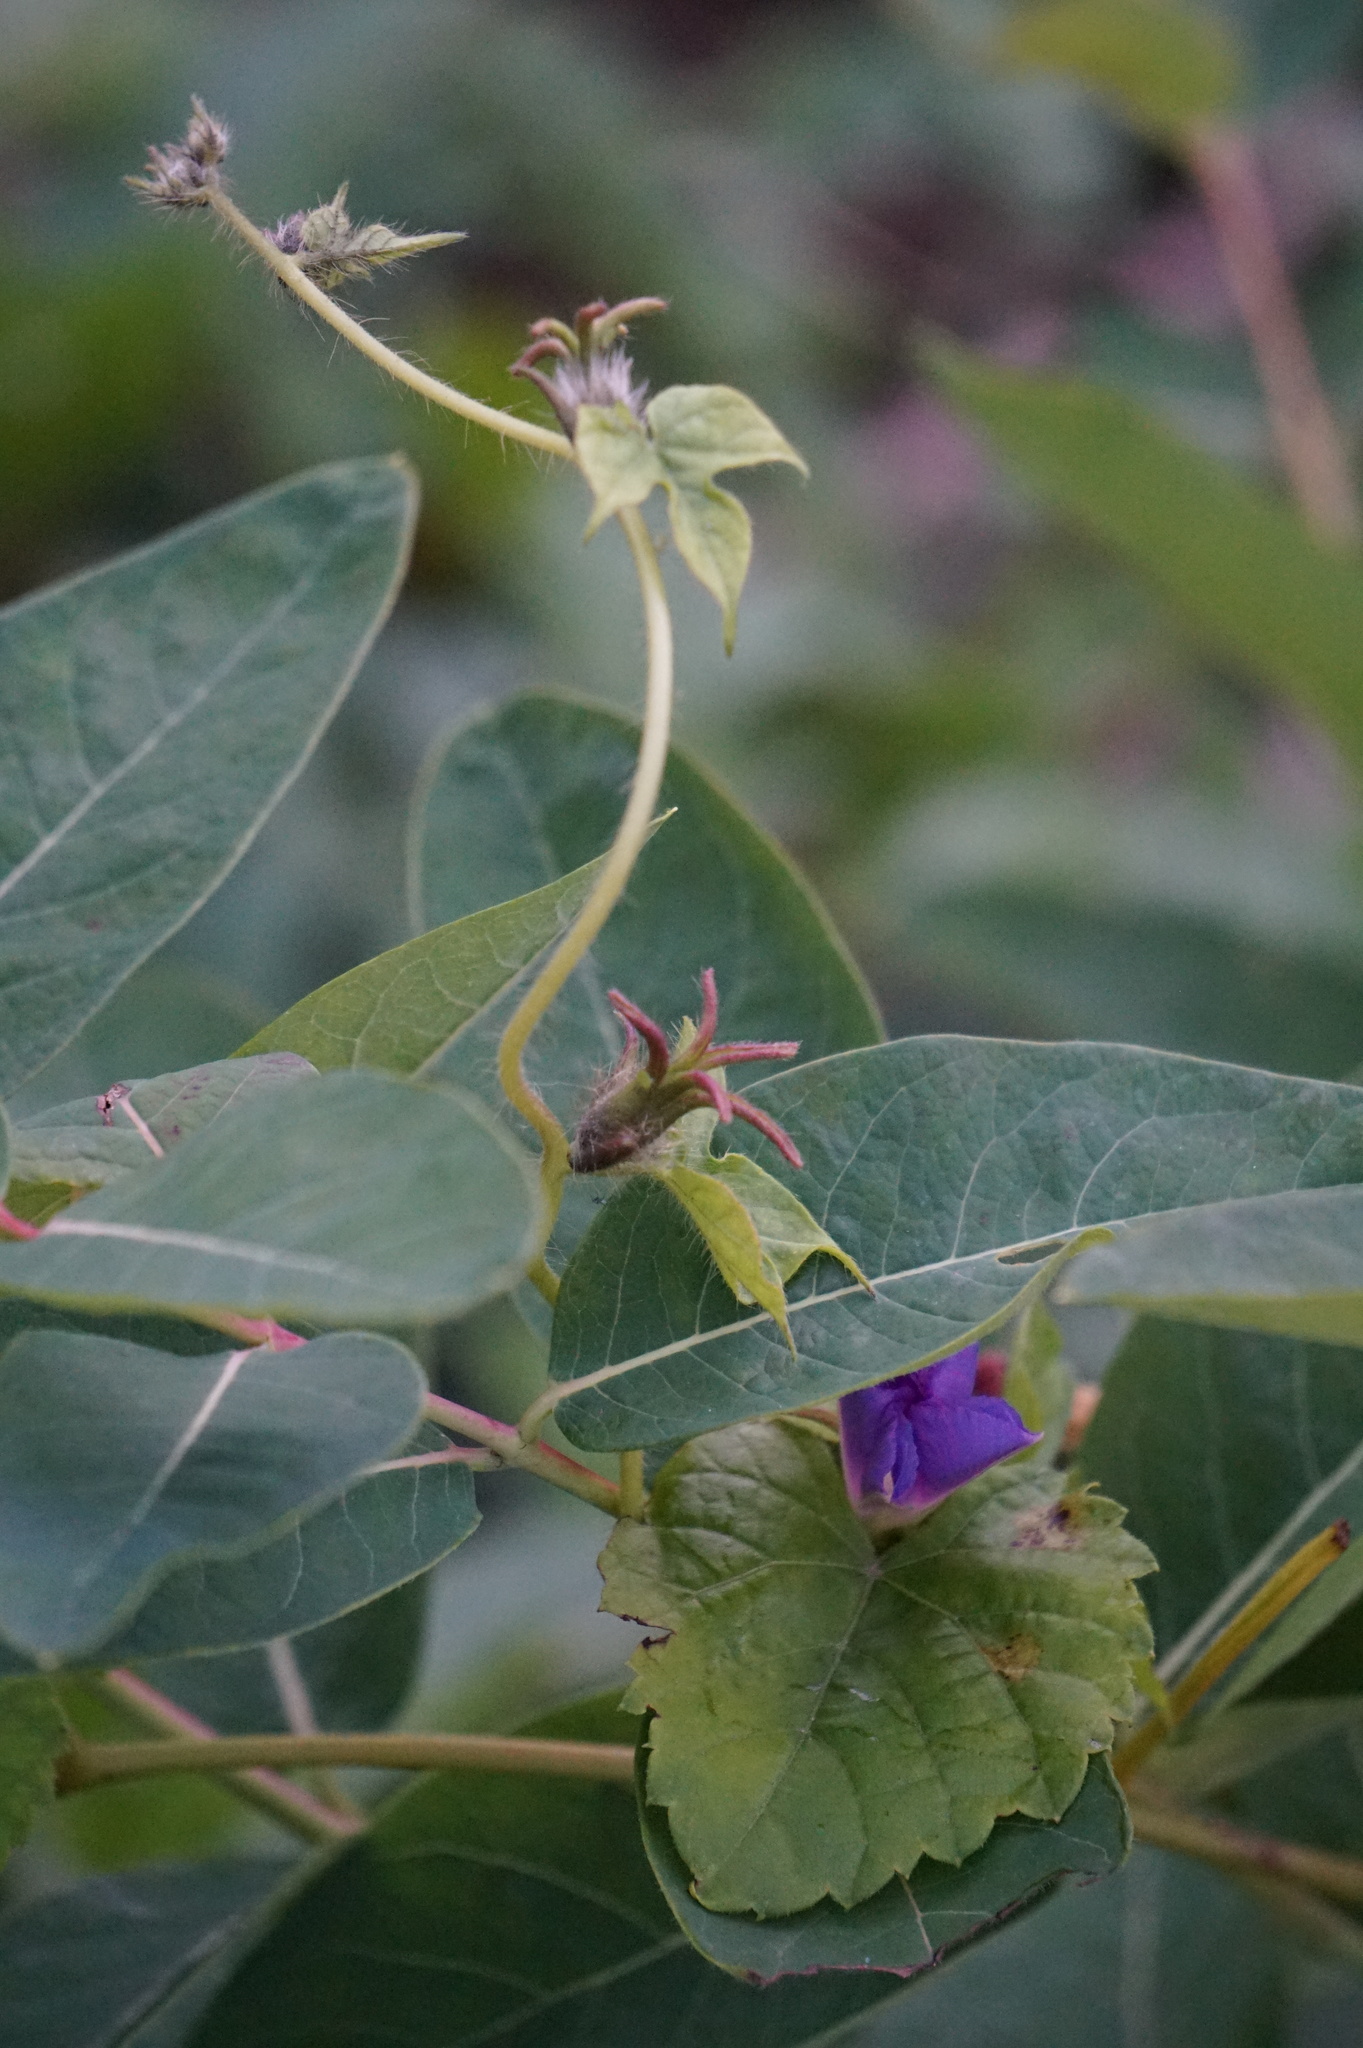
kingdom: Plantae
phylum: Tracheophyta
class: Magnoliopsida
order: Solanales
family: Convolvulaceae
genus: Ipomoea
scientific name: Ipomoea purpurea
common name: Common morning-glory
